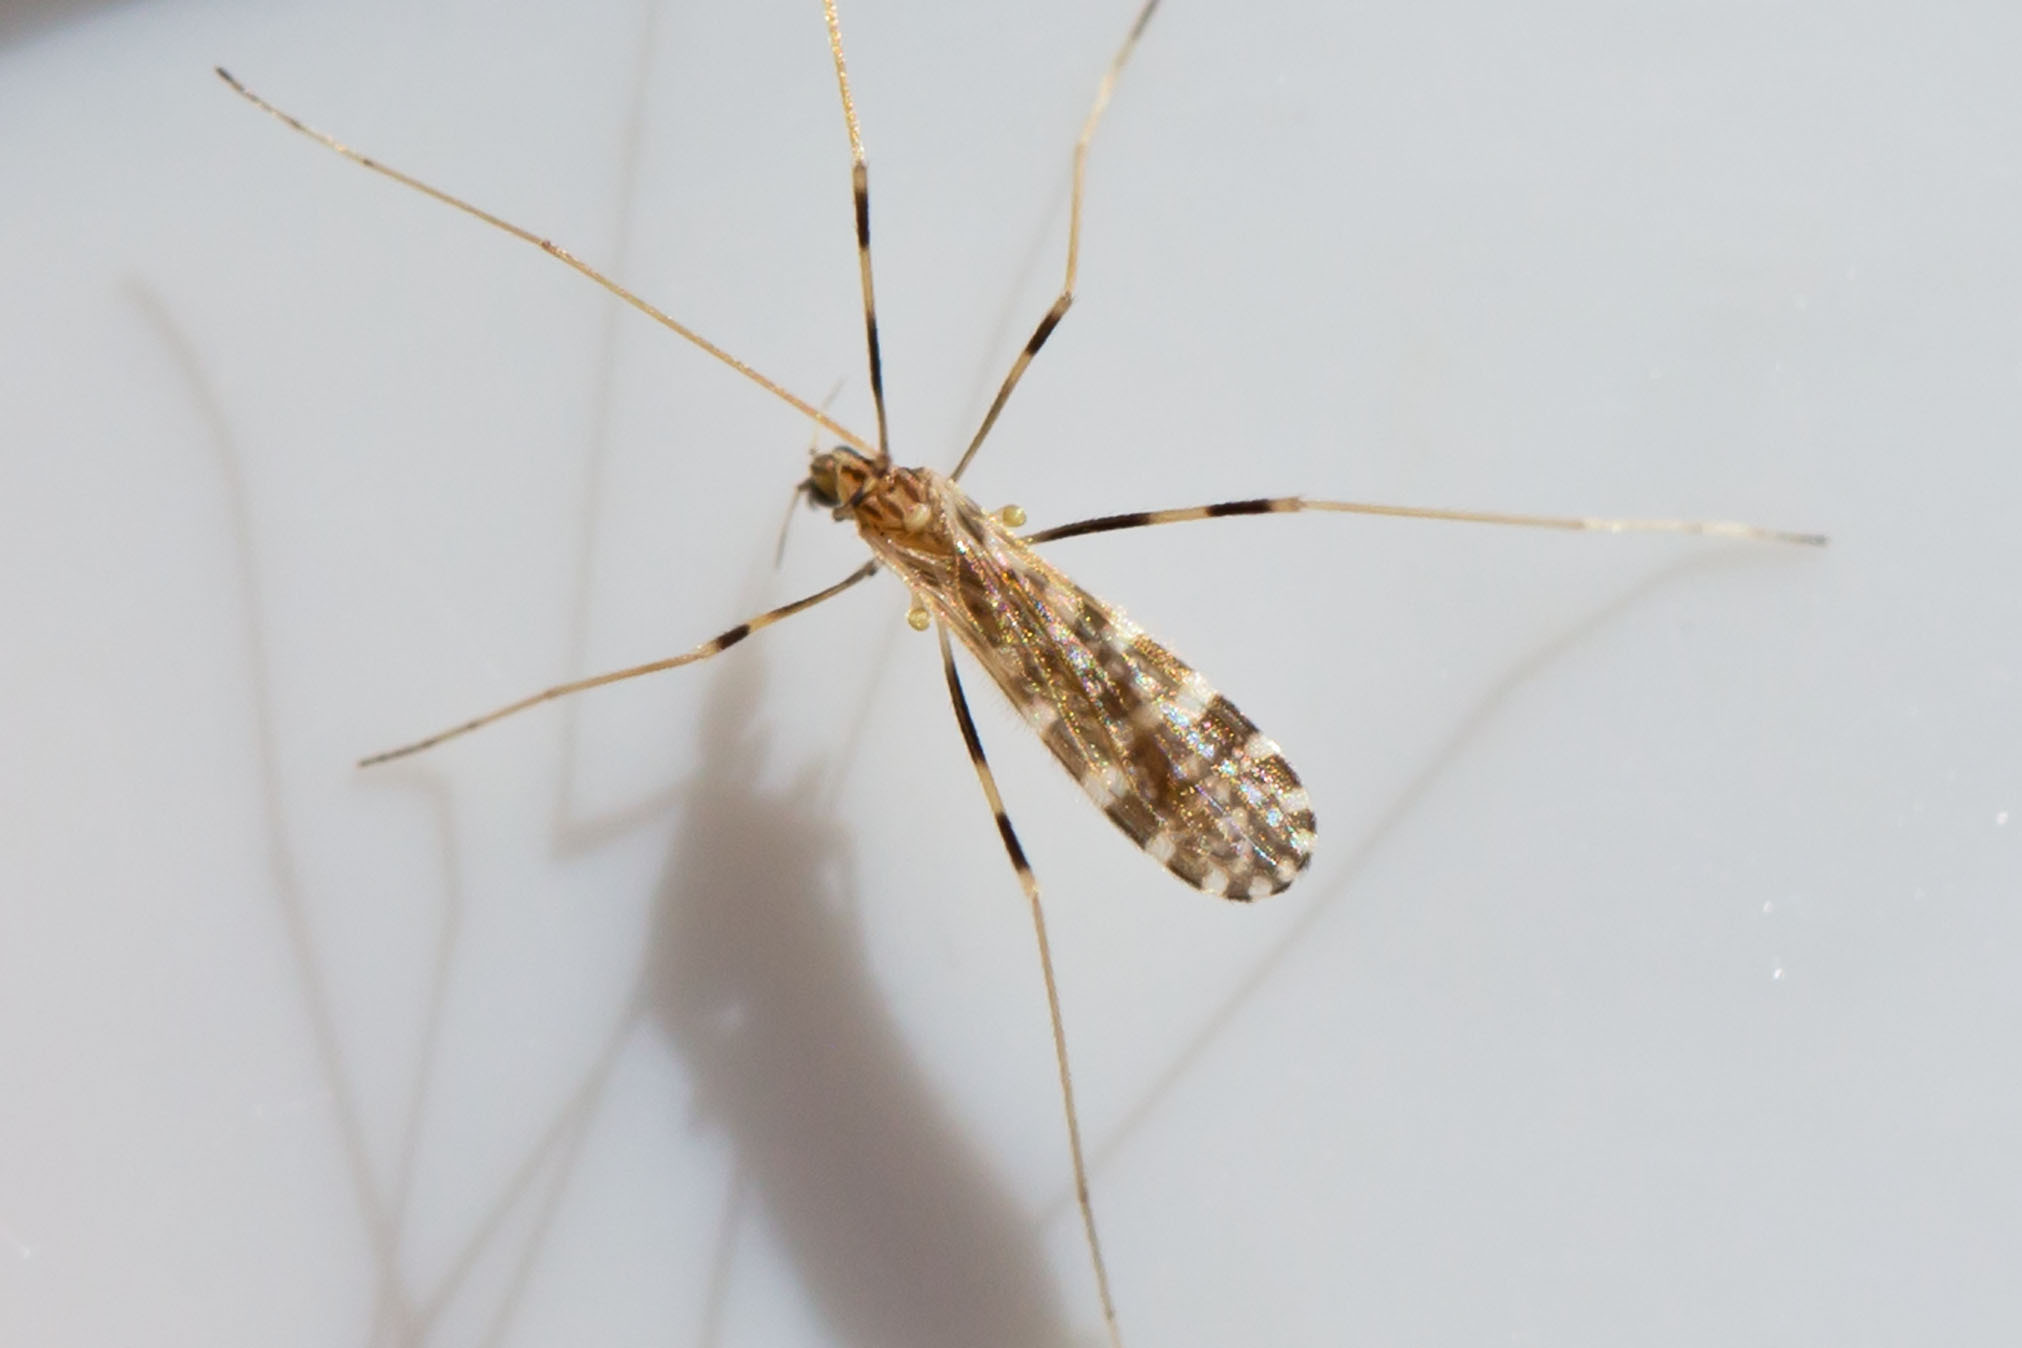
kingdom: Animalia
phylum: Arthropoda
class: Insecta
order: Diptera
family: Limoniidae
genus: Erioptera
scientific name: Erioptera caliptera
